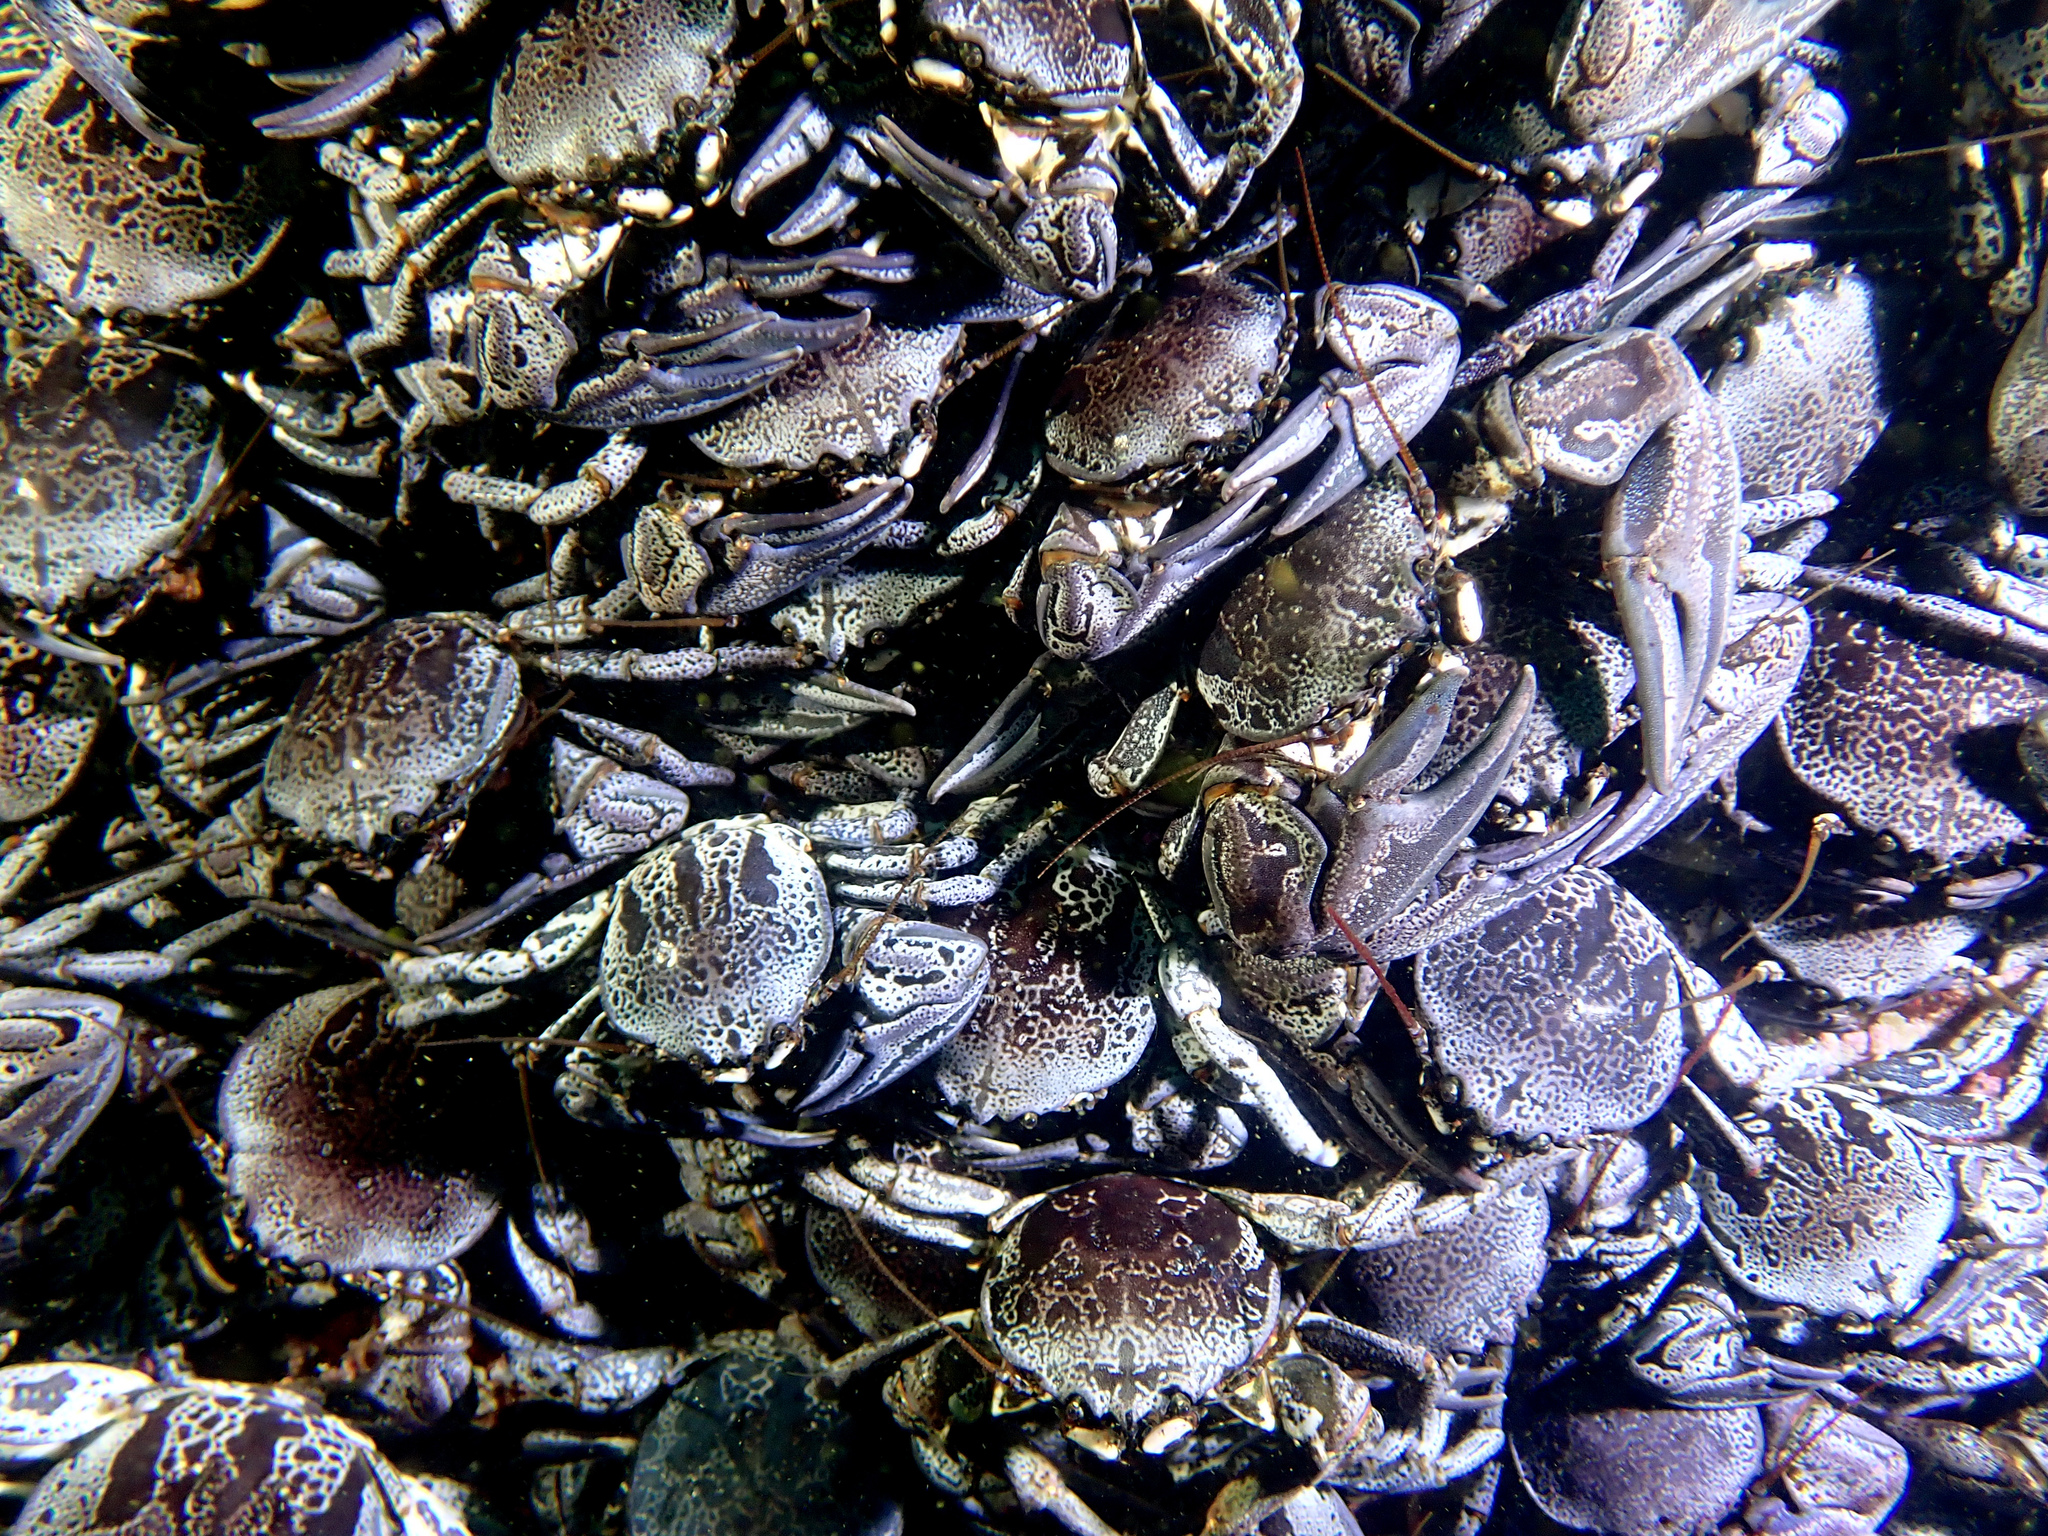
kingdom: Animalia
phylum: Arthropoda
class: Malacostraca
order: Decapoda
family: Porcellanidae
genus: Petrolisthes
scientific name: Petrolisthes punctatus
